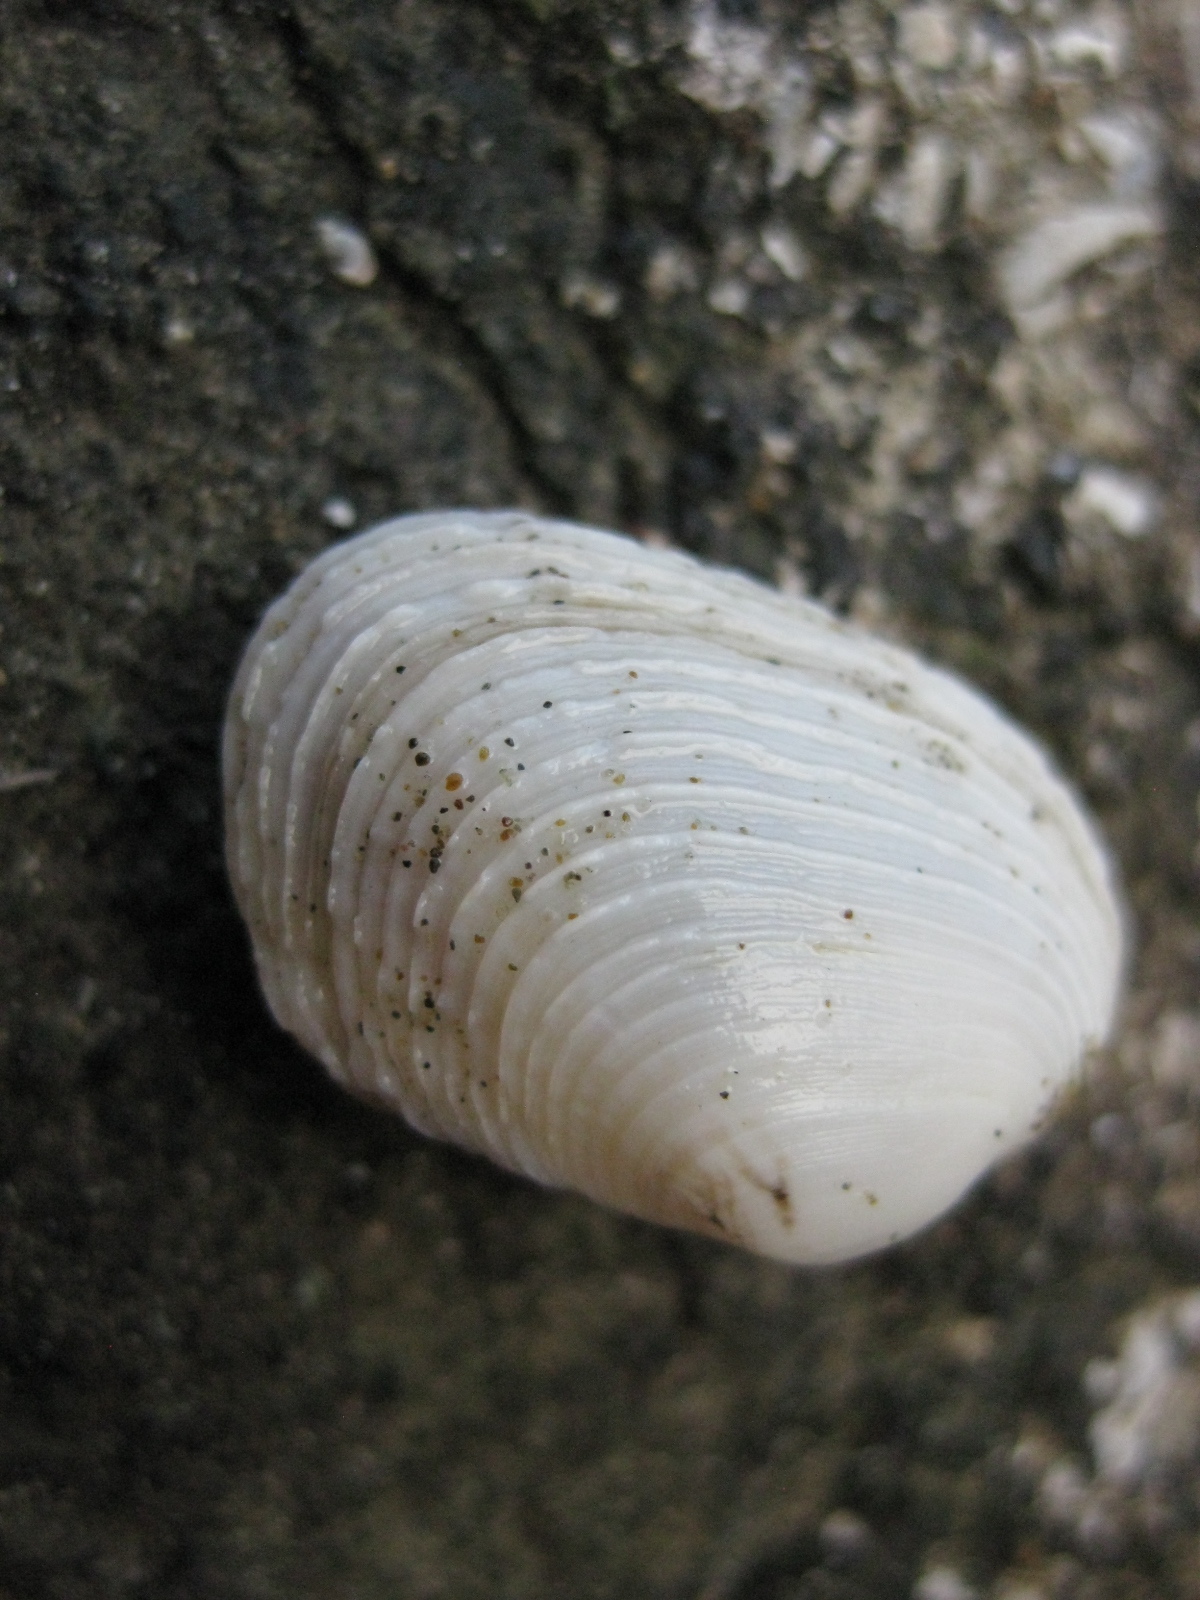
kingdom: Animalia
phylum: Mollusca
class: Bivalvia
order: Venerida
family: Veneridae
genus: Irus
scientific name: Irus reflexus
